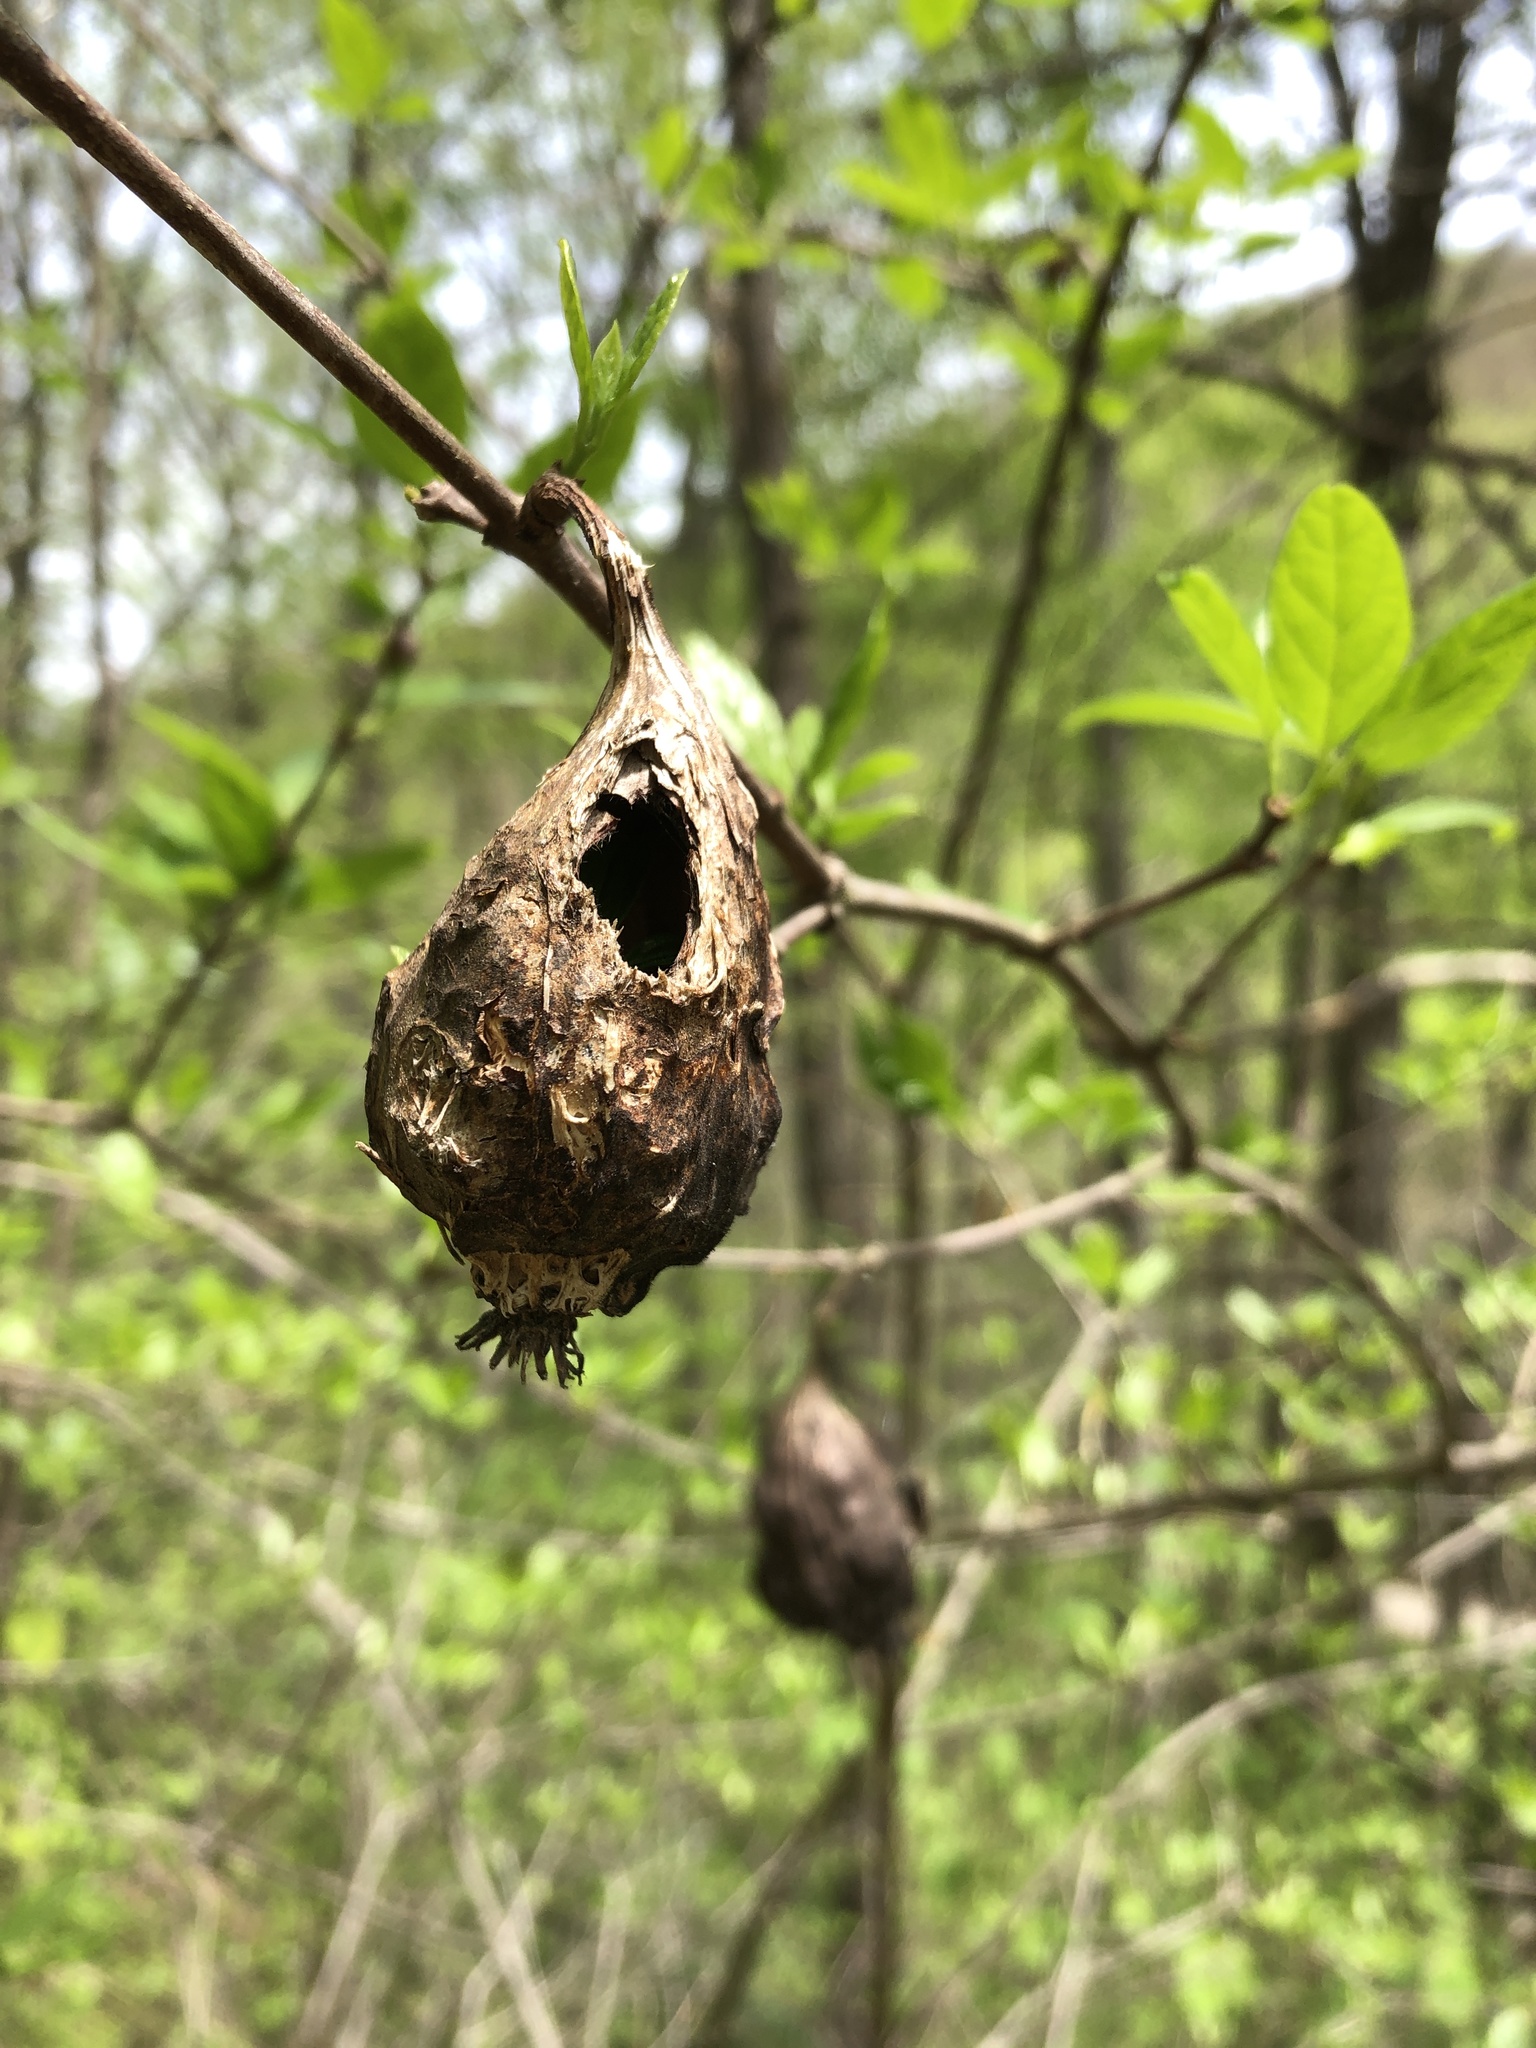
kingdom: Plantae
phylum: Tracheophyta
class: Magnoliopsida
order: Laurales
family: Calycanthaceae
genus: Calycanthus
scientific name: Calycanthus floridus
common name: Carolina-allspice
